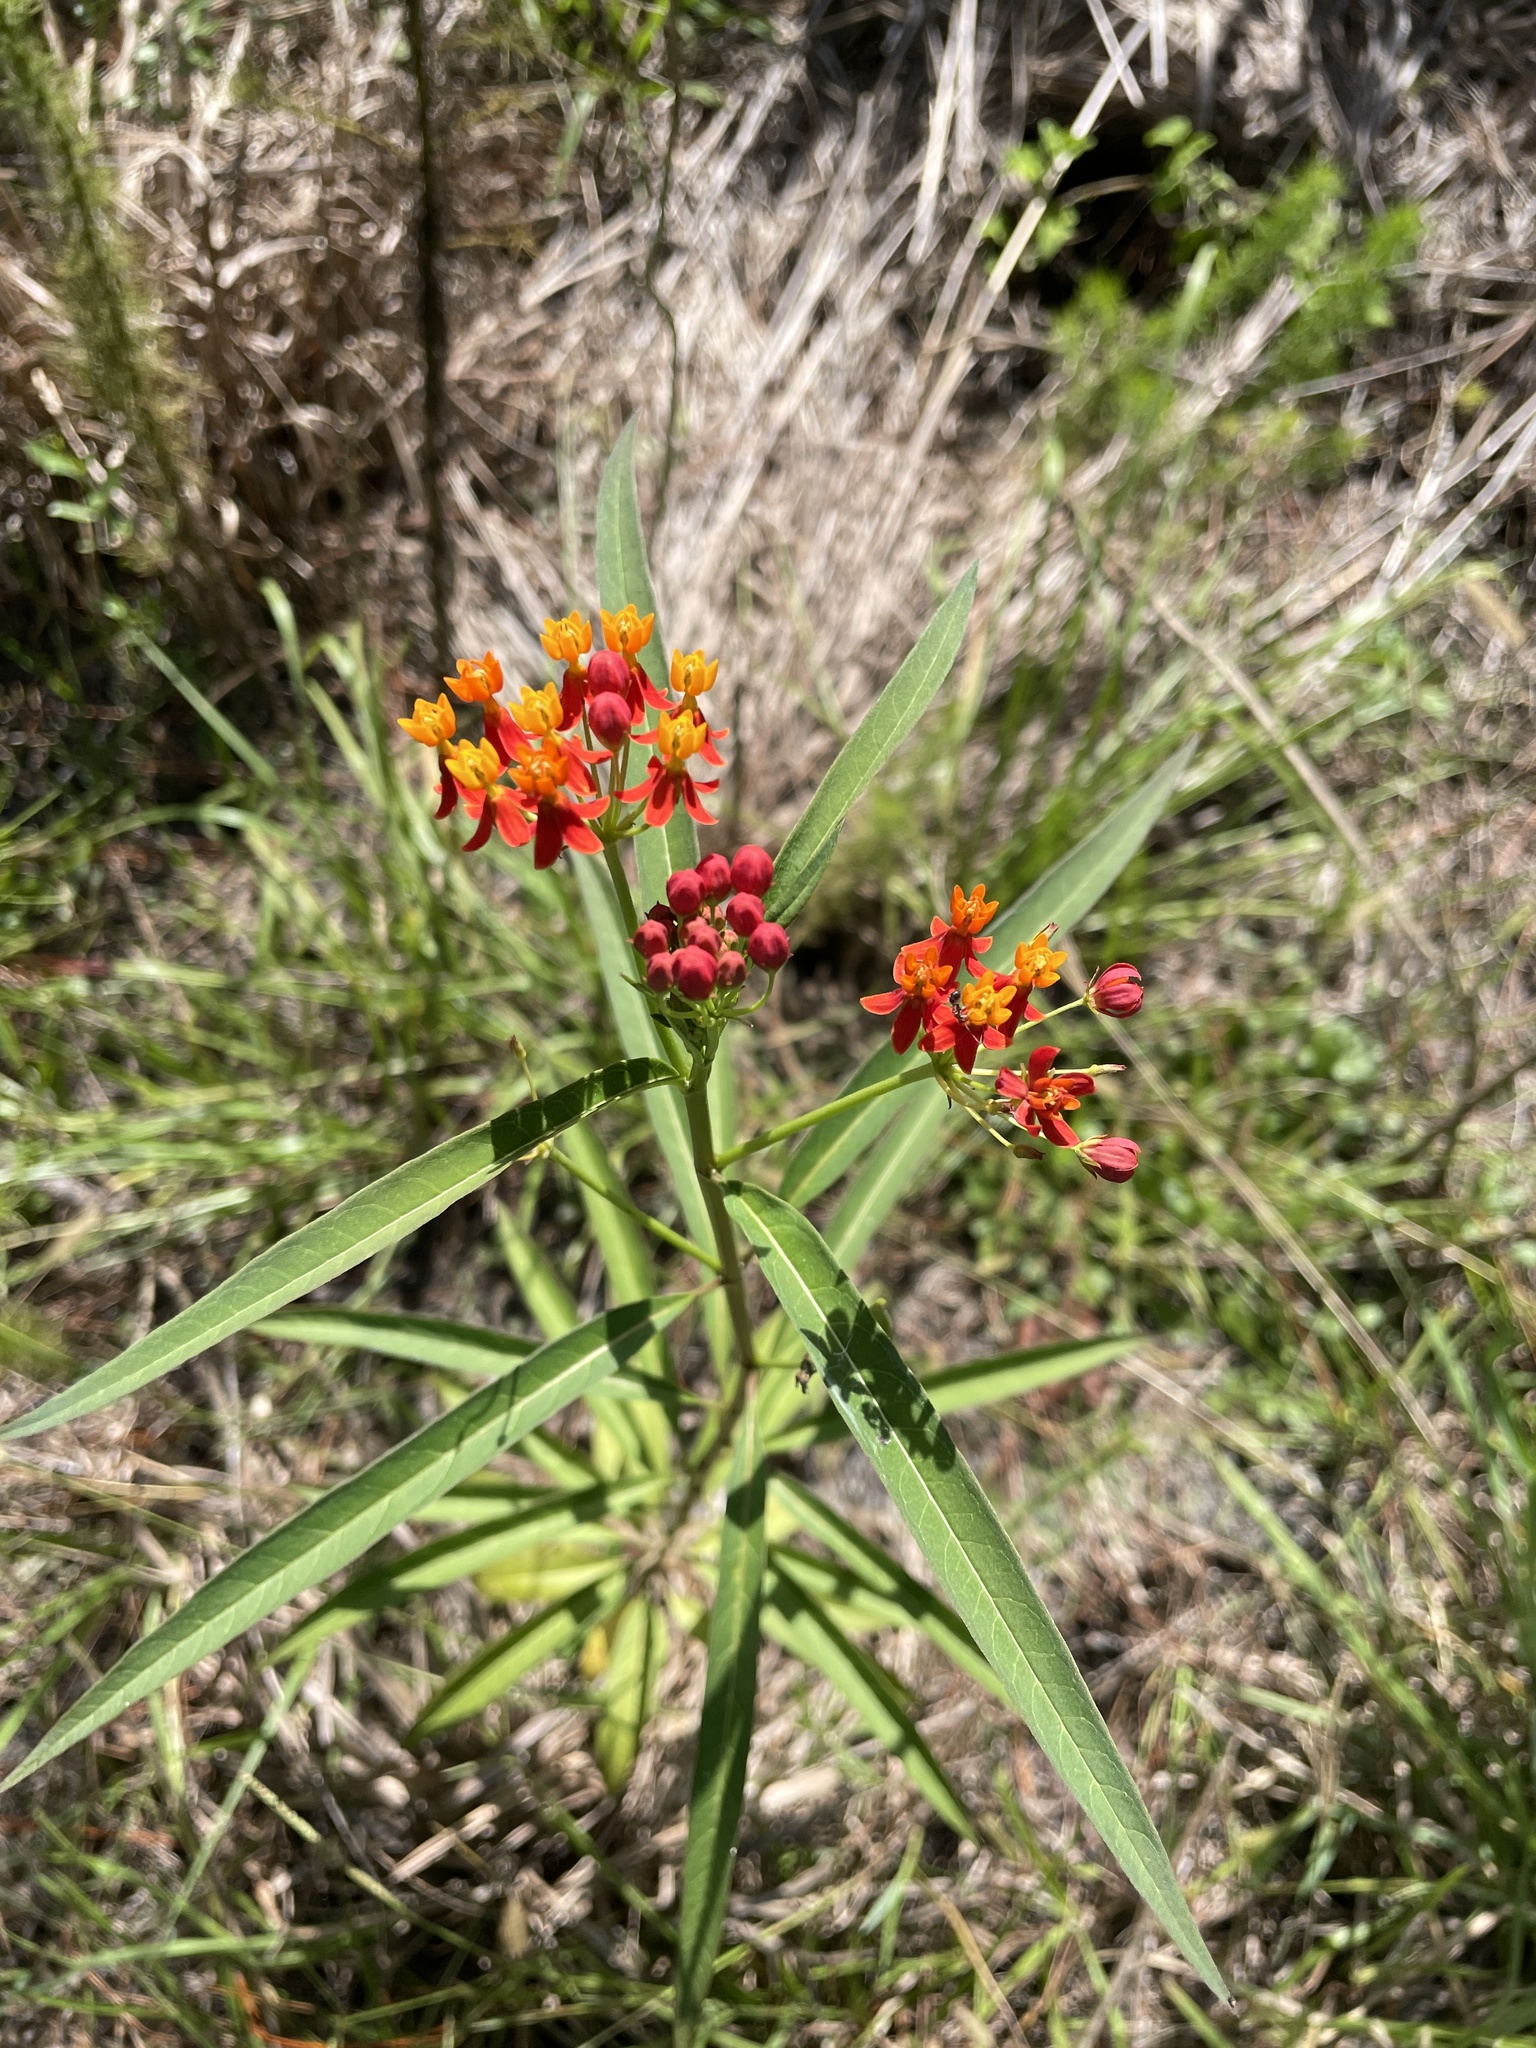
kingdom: Plantae
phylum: Tracheophyta
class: Magnoliopsida
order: Gentianales
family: Apocynaceae
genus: Asclepias
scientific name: Asclepias curassavica
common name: Bloodflower
